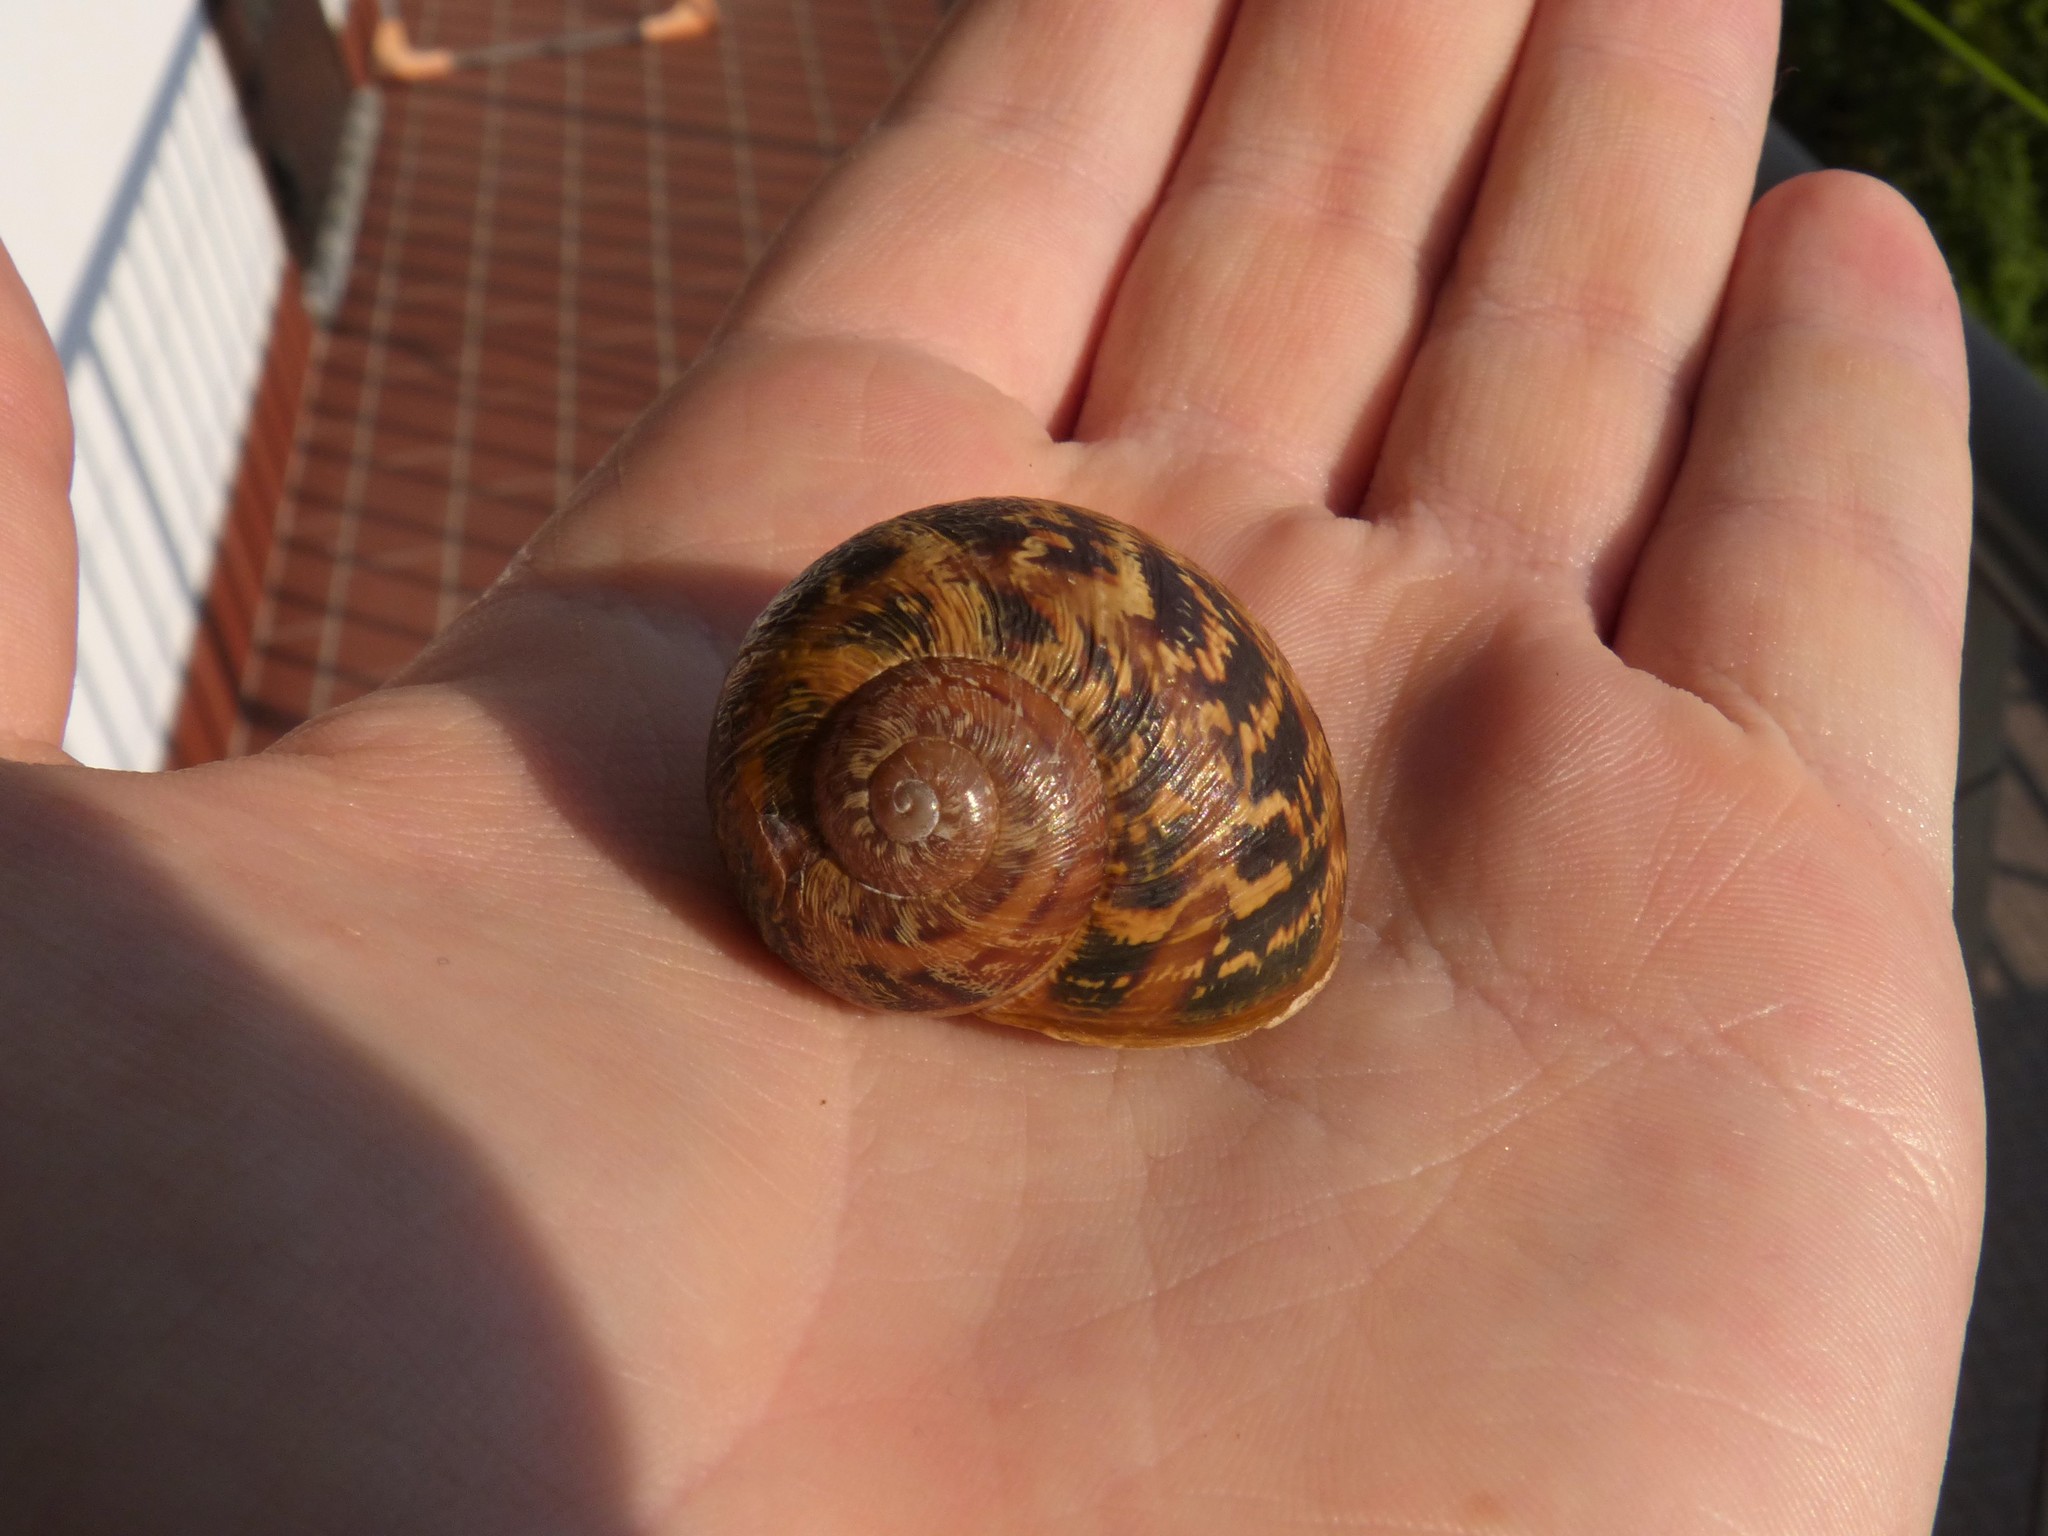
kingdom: Animalia
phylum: Mollusca
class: Gastropoda
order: Stylommatophora
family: Helicidae
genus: Cornu
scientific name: Cornu aspersum
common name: Brown garden snail
